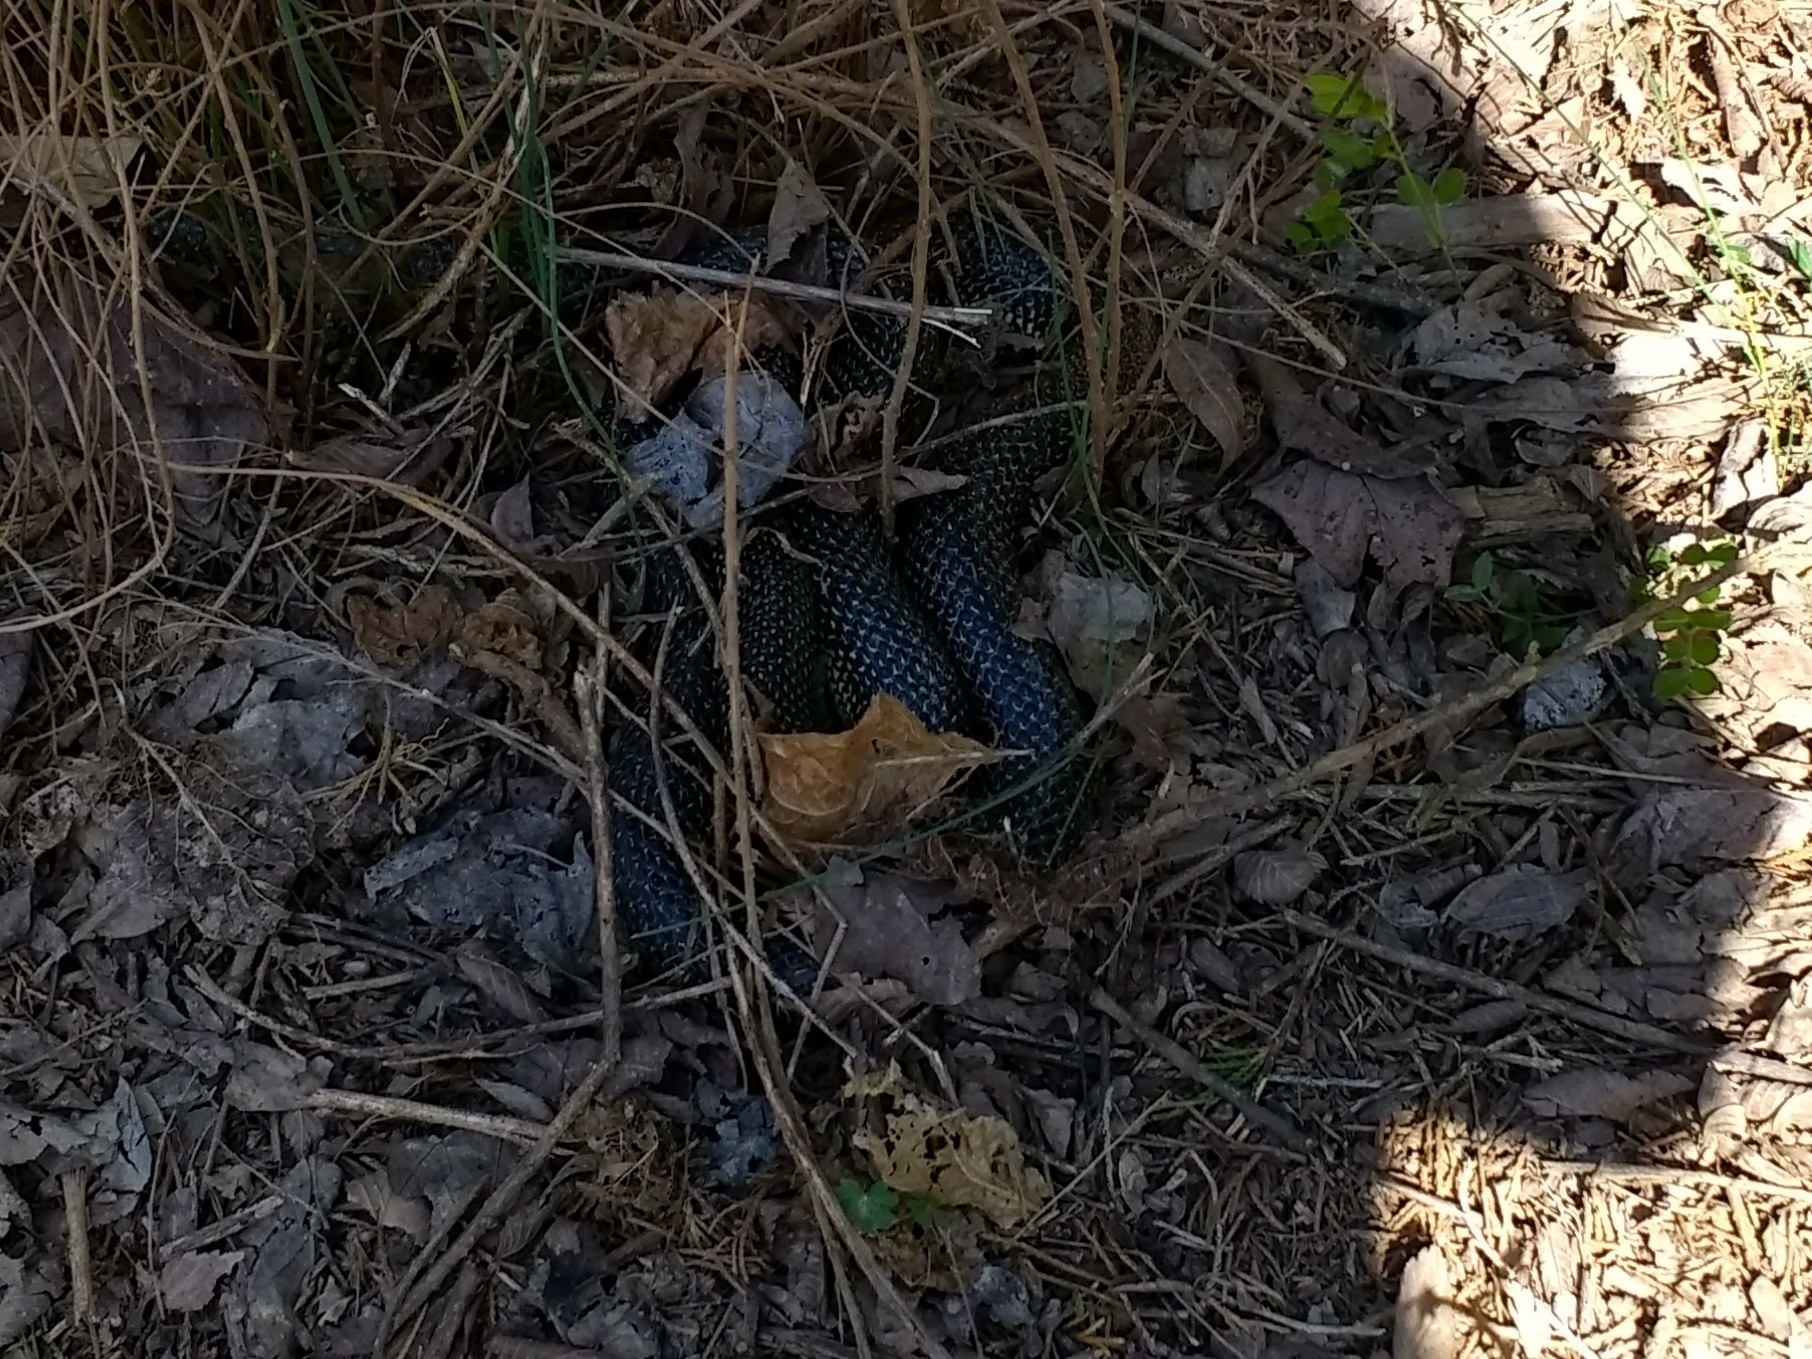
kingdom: Animalia
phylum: Chordata
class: Squamata
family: Colubridae
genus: Lampropeltis
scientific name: Lampropeltis holbrooki
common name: Speckled kingsnake
